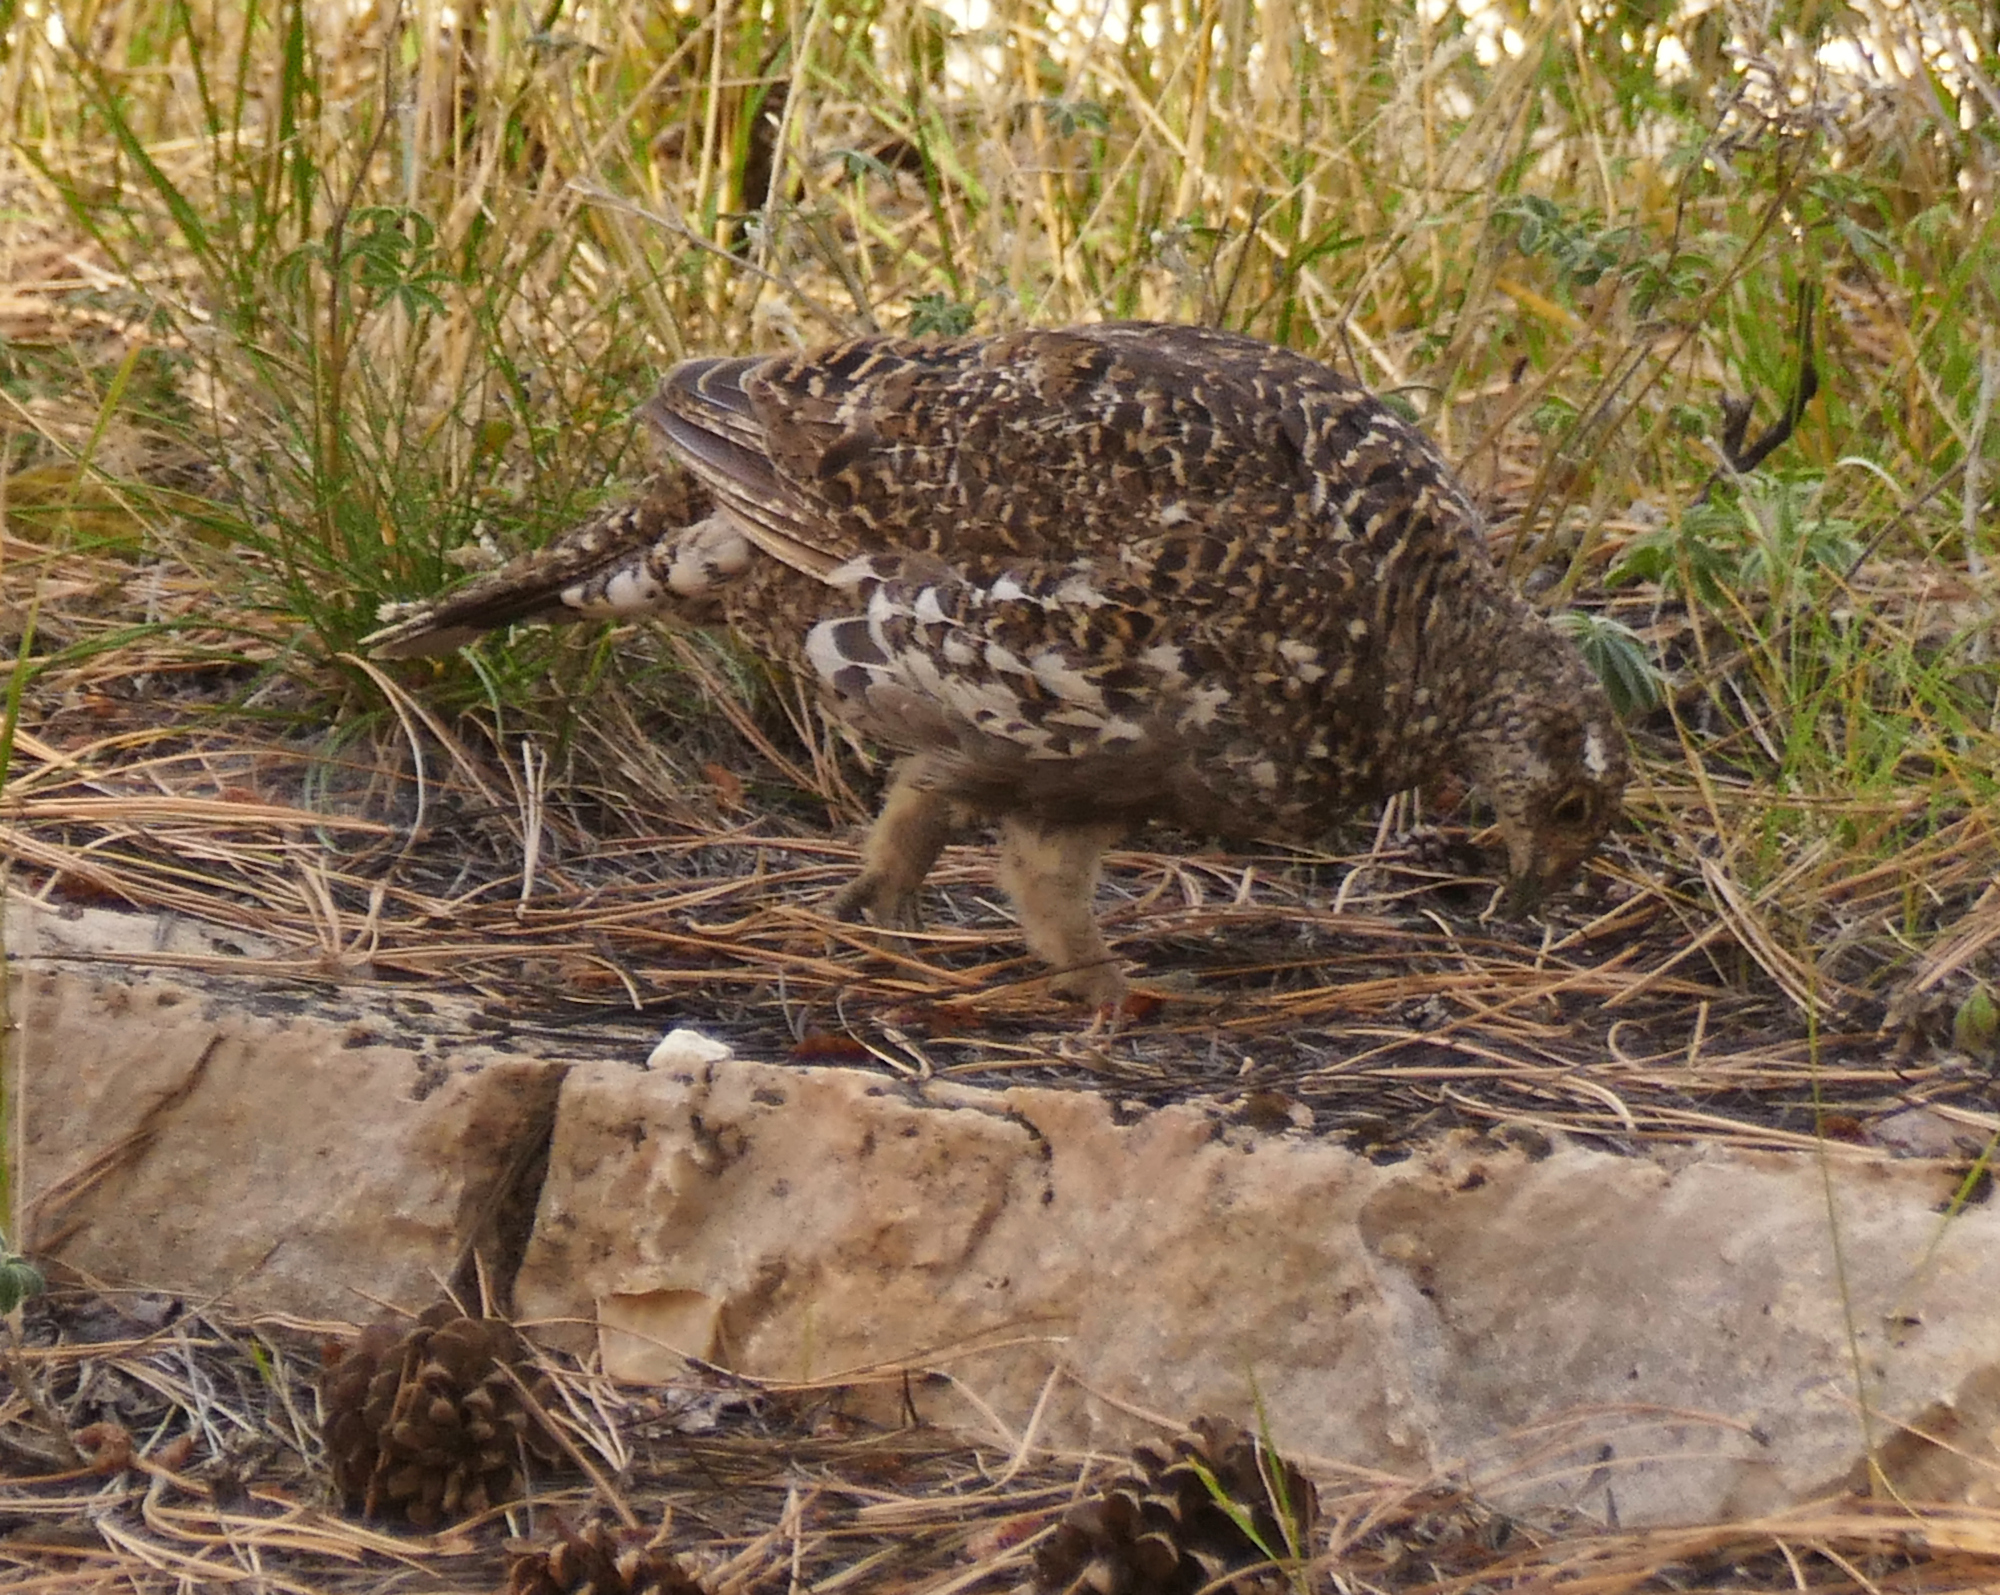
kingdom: Animalia
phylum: Chordata
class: Aves
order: Galliformes
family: Phasianidae
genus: Dendragapus
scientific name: Dendragapus obscurus
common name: Dusky grouse
